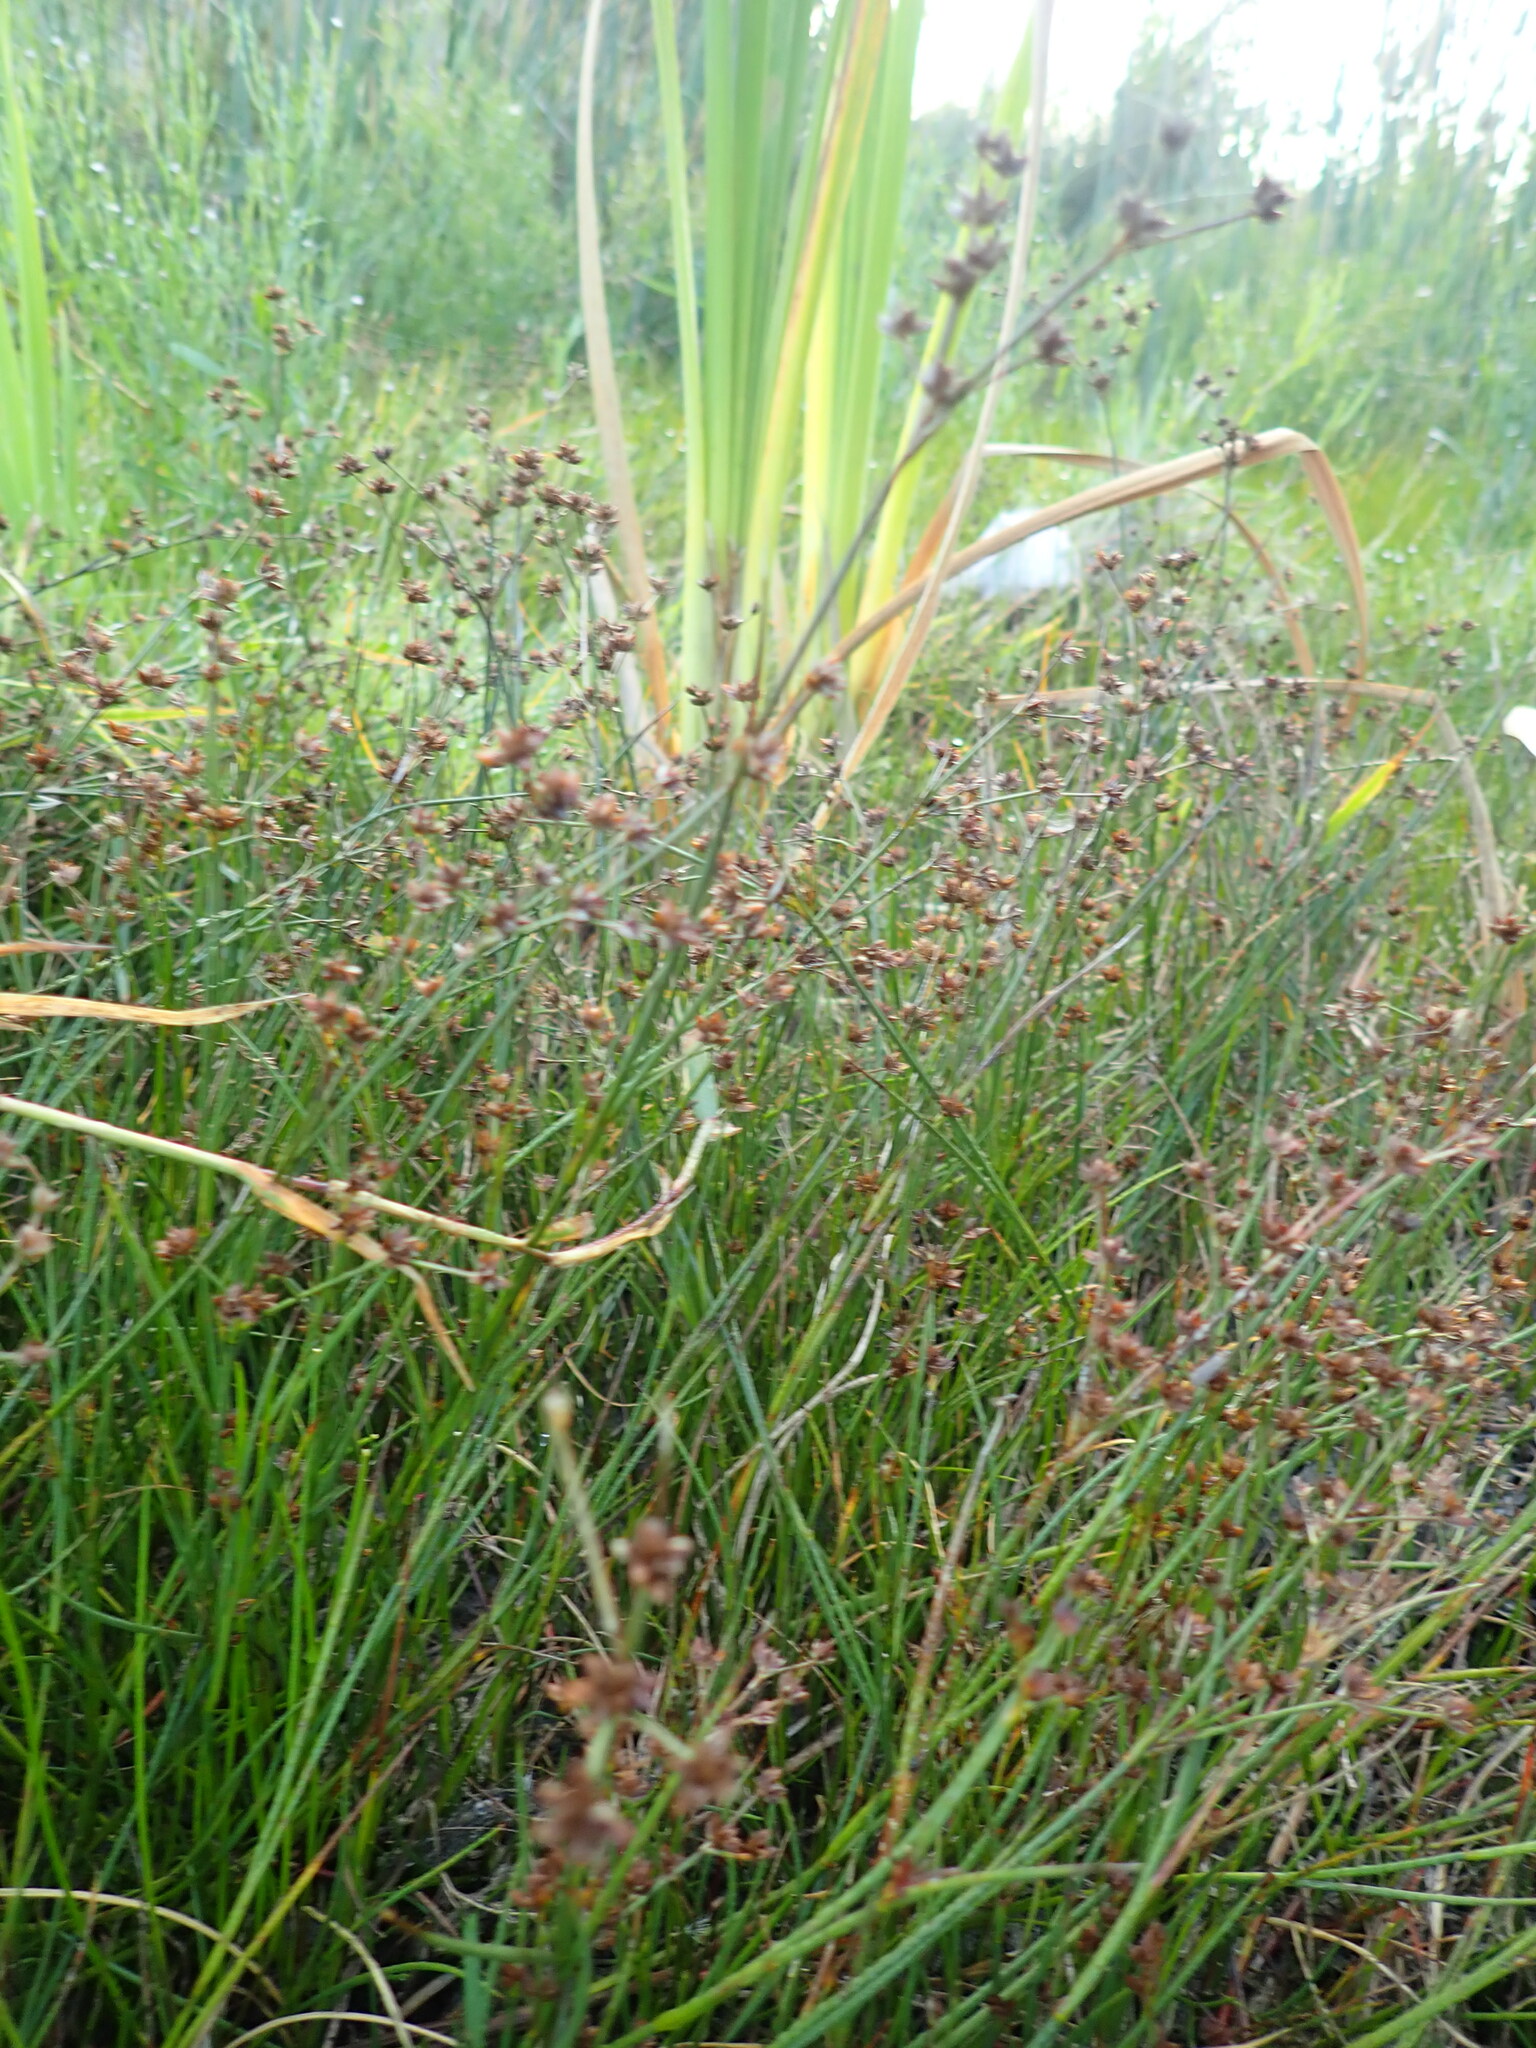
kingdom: Plantae
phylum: Tracheophyta
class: Liliopsida
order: Poales
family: Juncaceae
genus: Juncus
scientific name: Juncus articulatus
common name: Jointed rush
